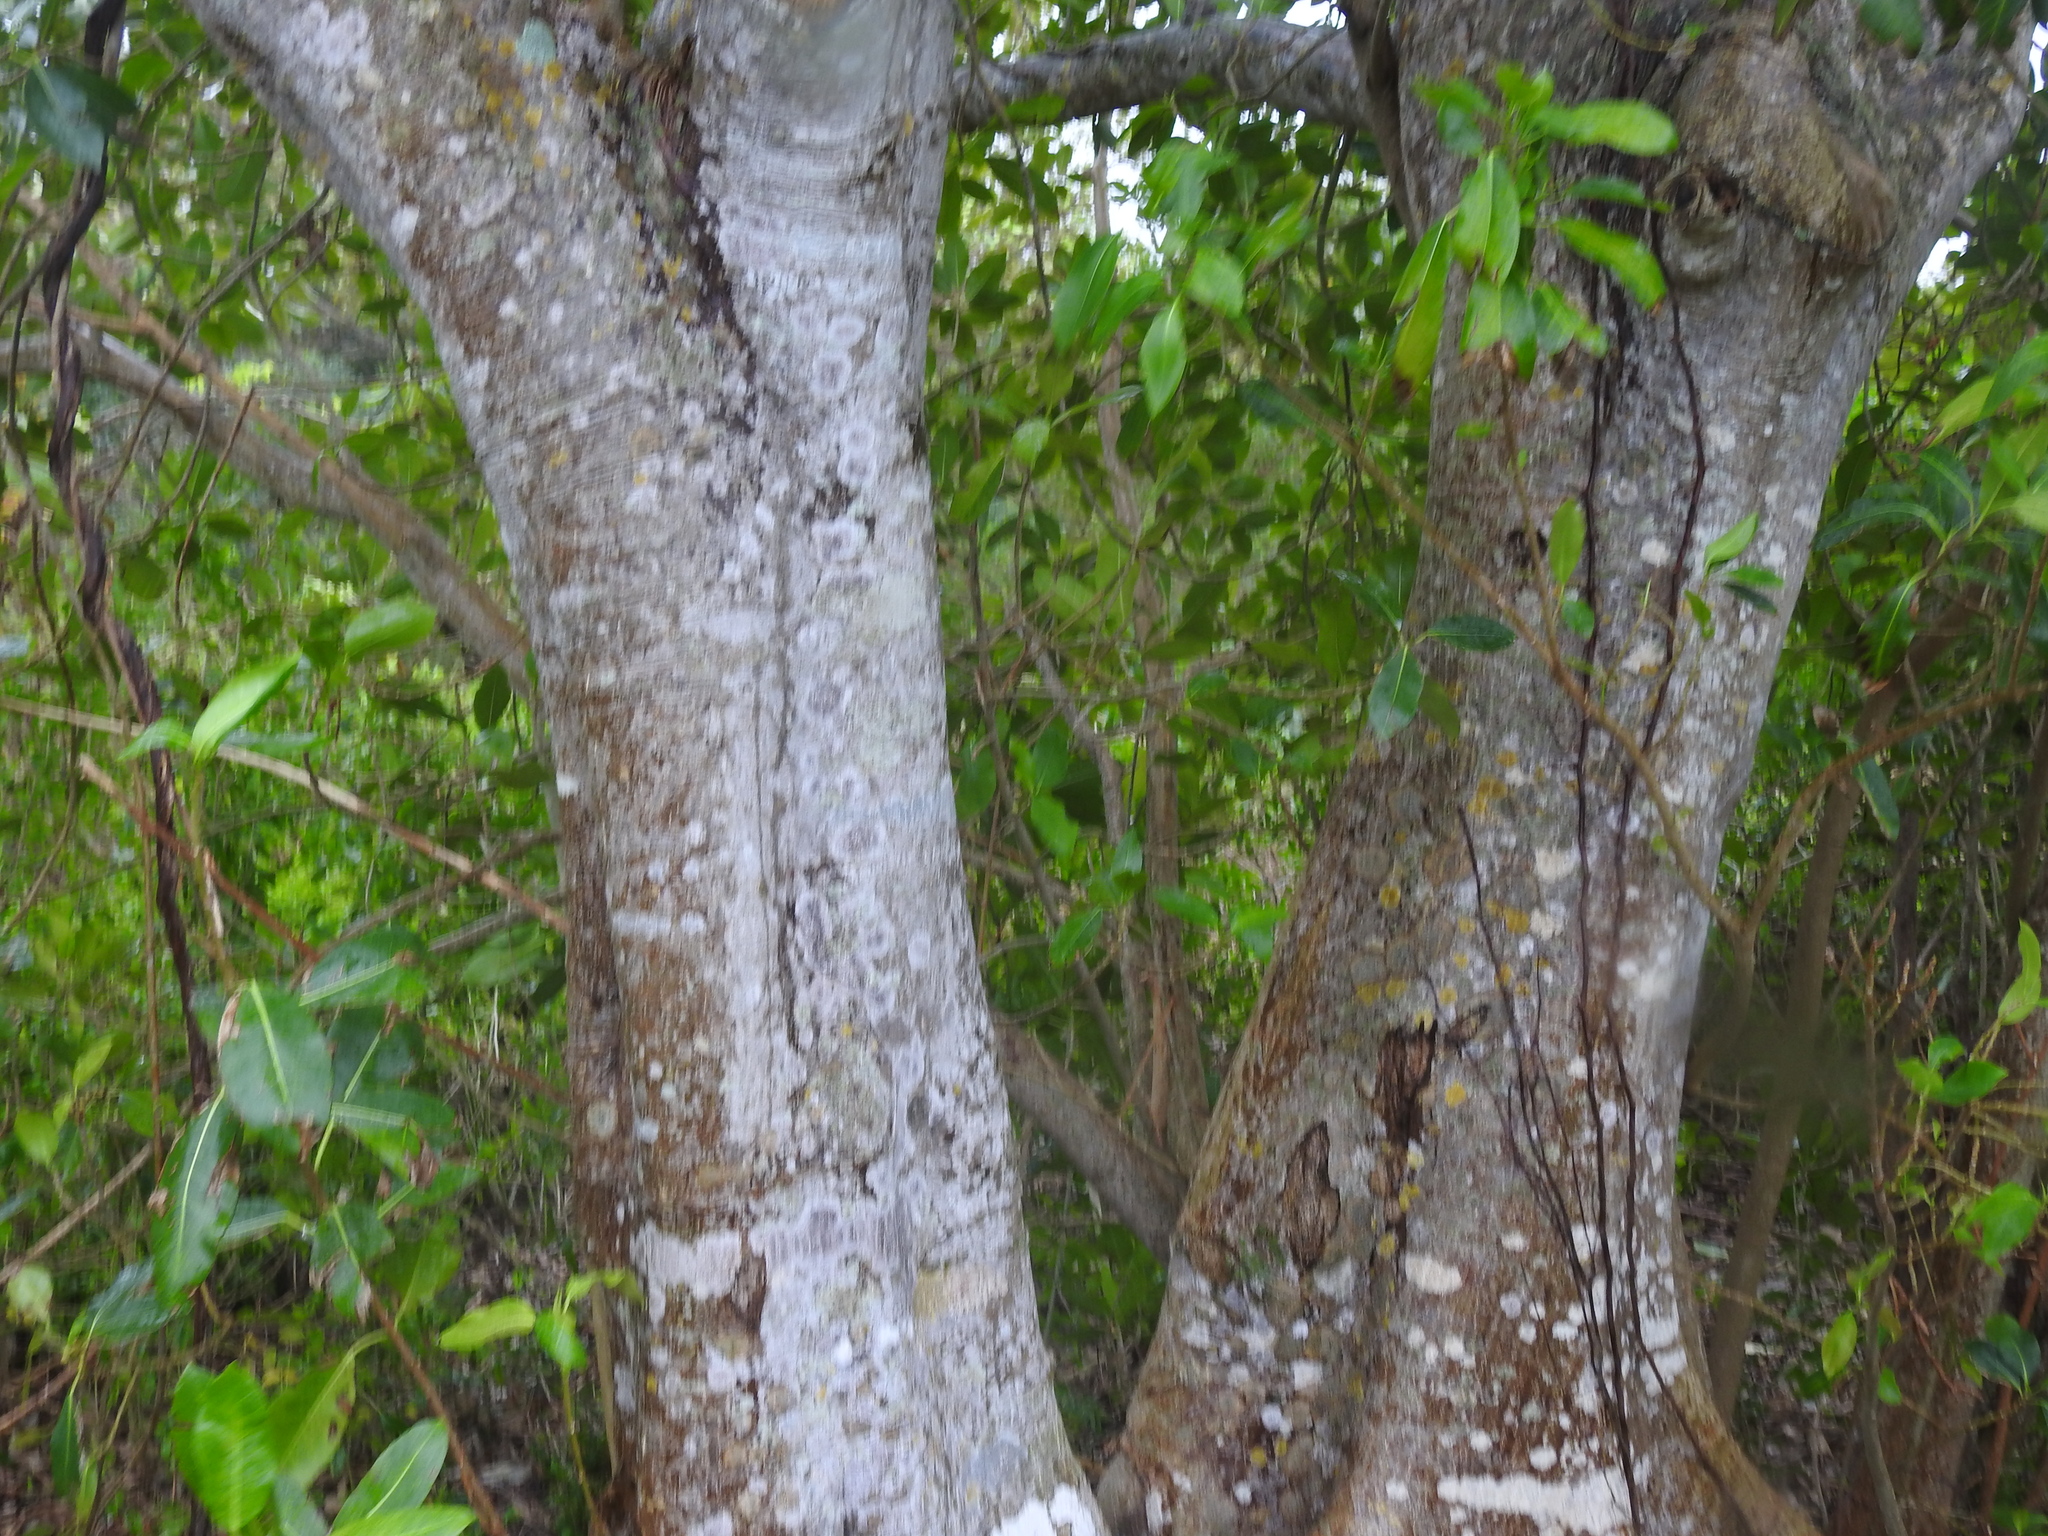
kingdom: Plantae
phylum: Tracheophyta
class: Magnoliopsida
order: Rosales
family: Moraceae
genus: Ficus
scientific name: Ficus aurea
